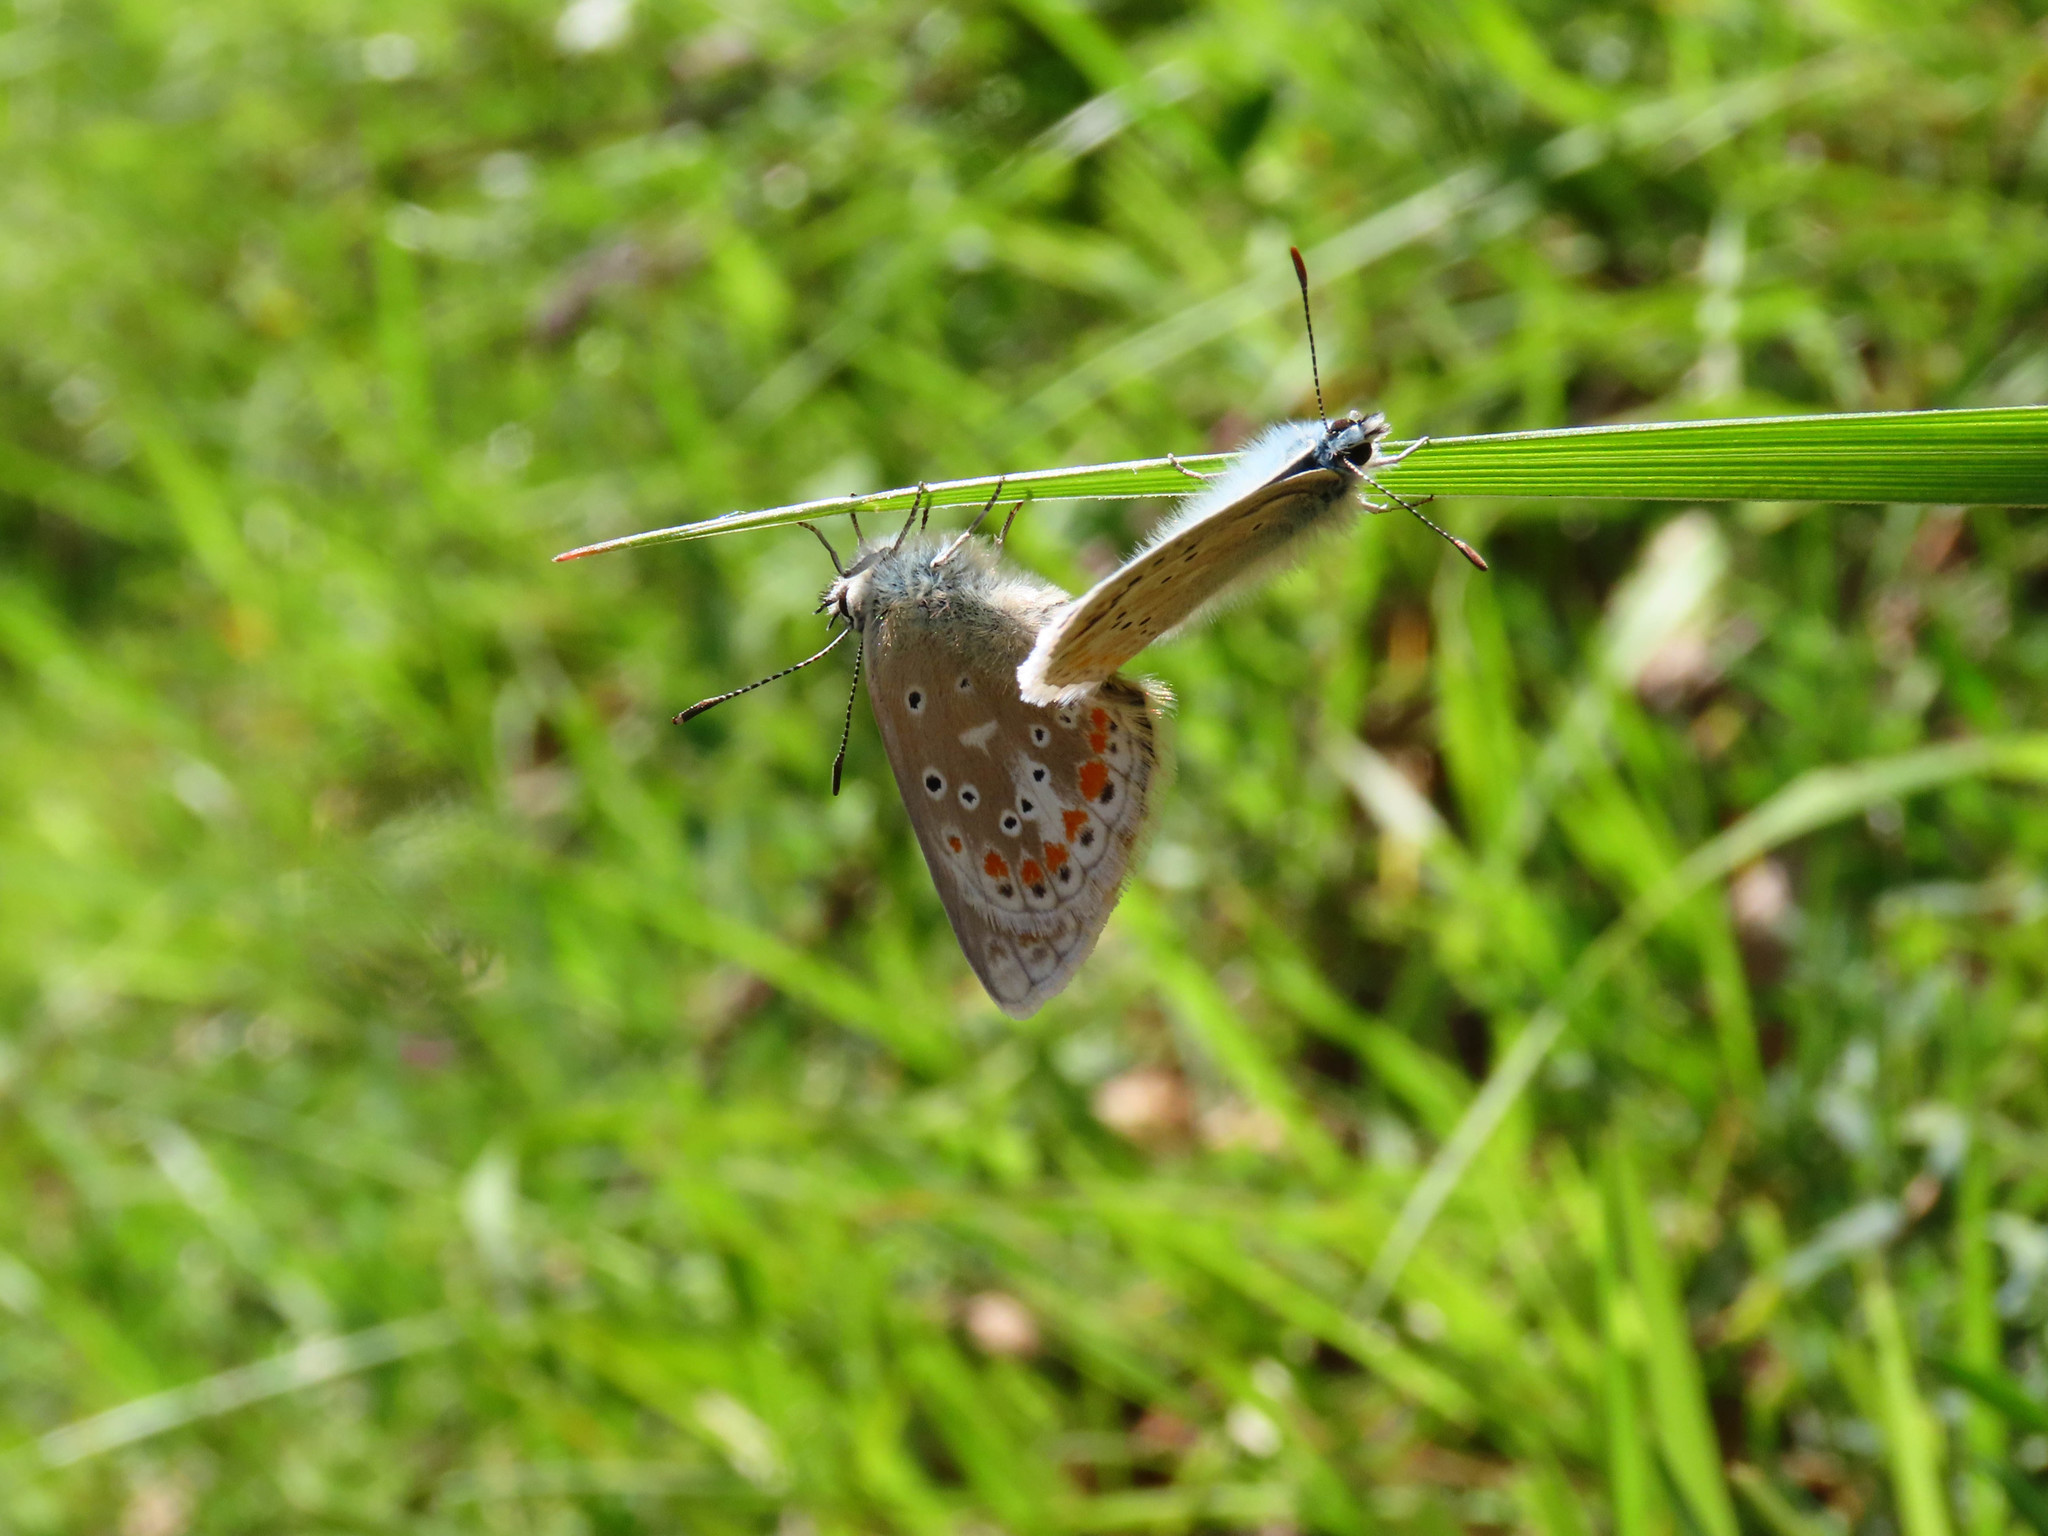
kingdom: Animalia
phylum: Arthropoda
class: Insecta
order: Lepidoptera
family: Lycaenidae
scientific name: Lycaenidae
